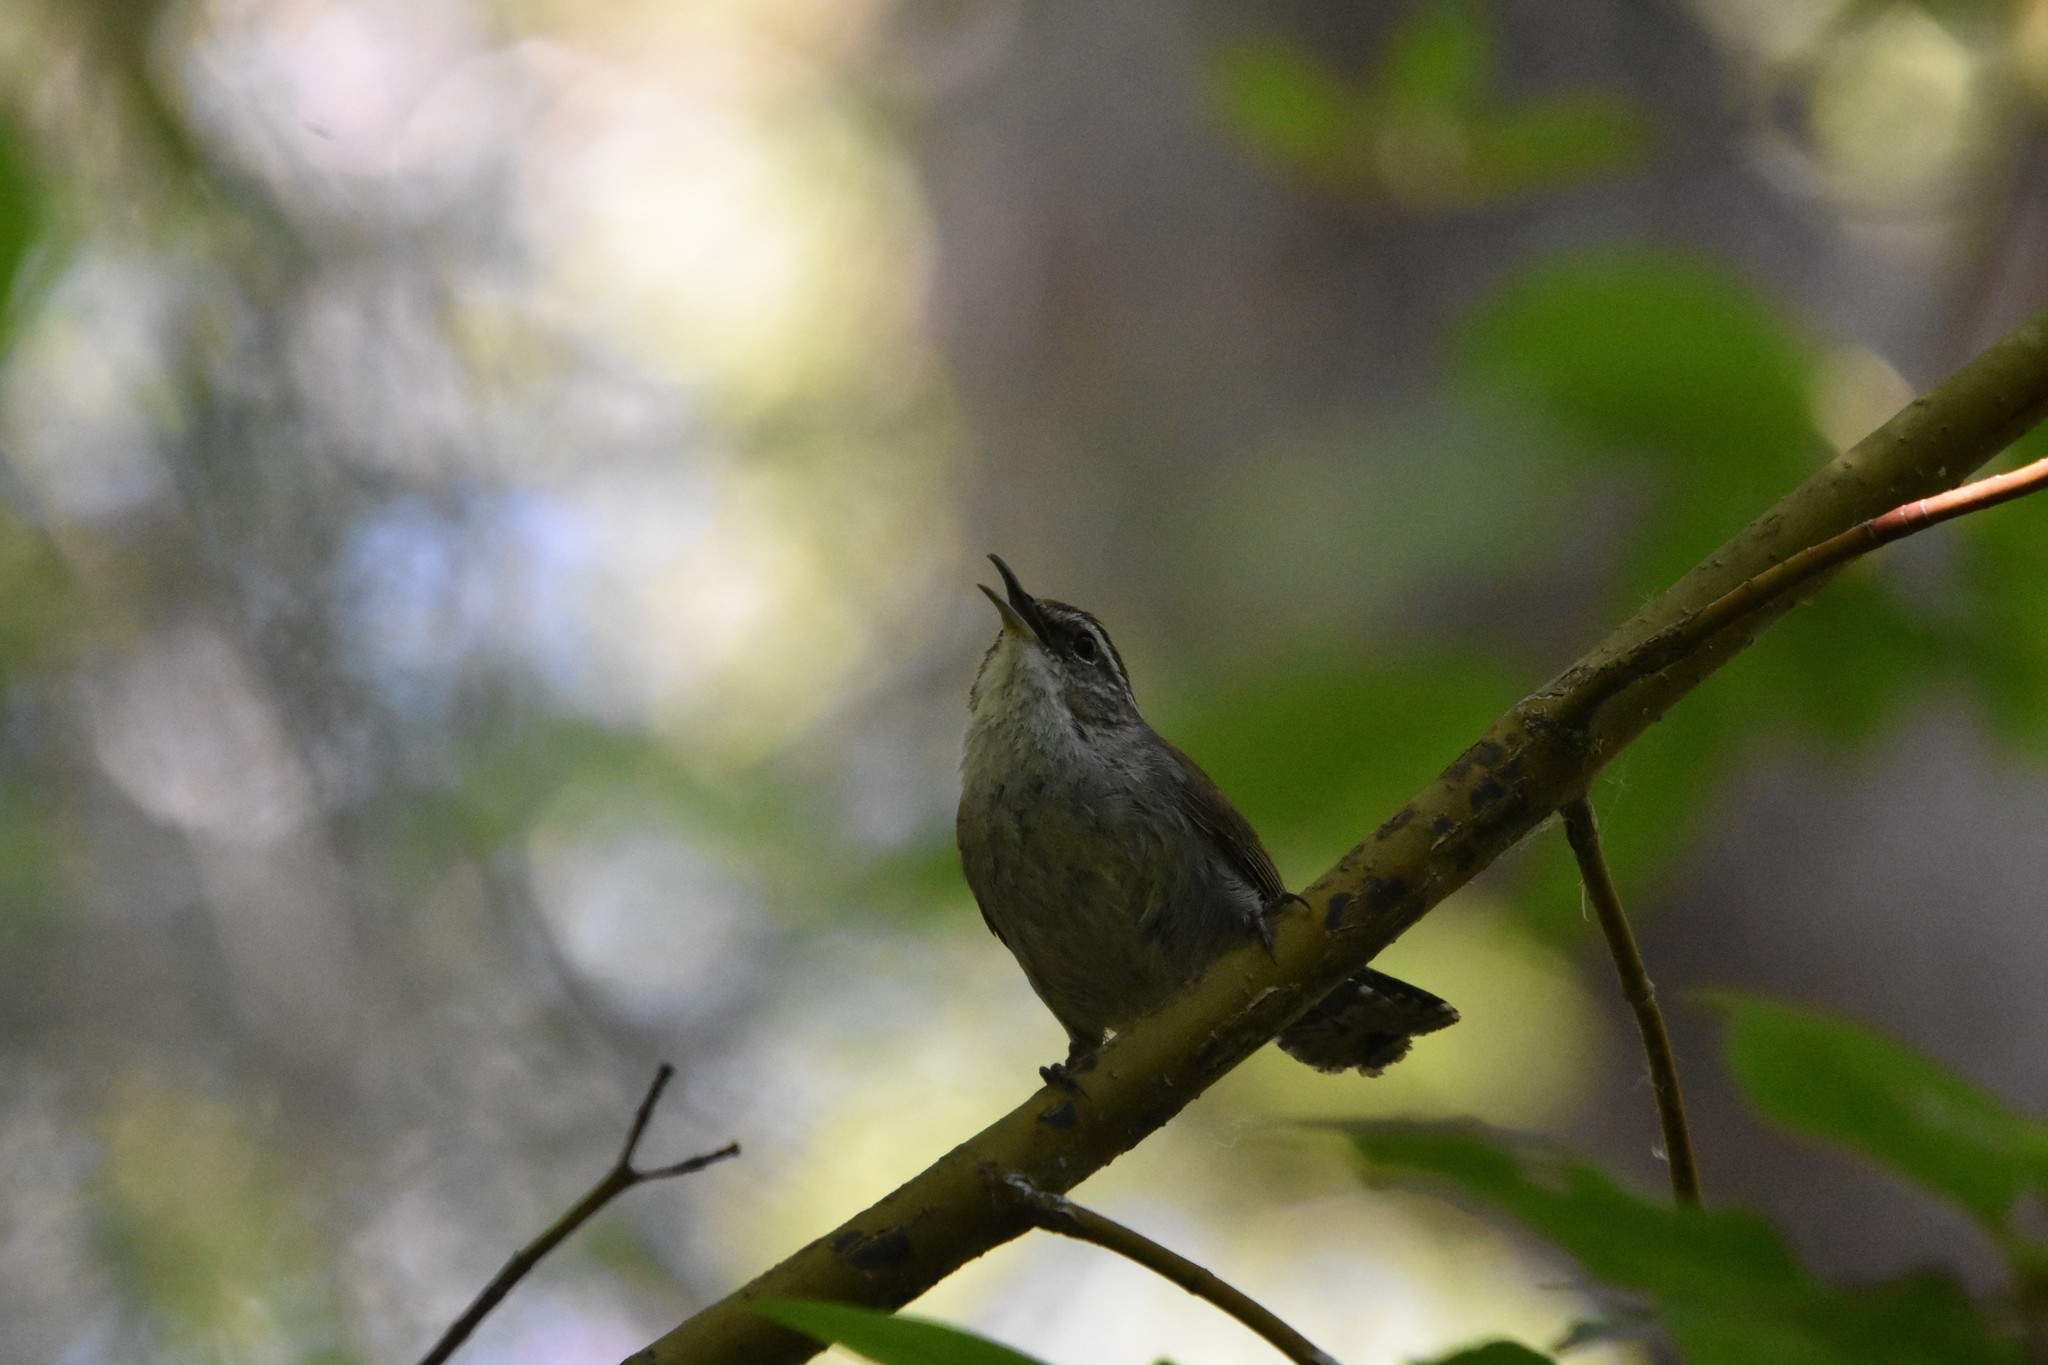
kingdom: Animalia
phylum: Chordata
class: Aves
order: Passeriformes
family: Troglodytidae
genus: Thryomanes
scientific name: Thryomanes bewickii
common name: Bewick's wren
